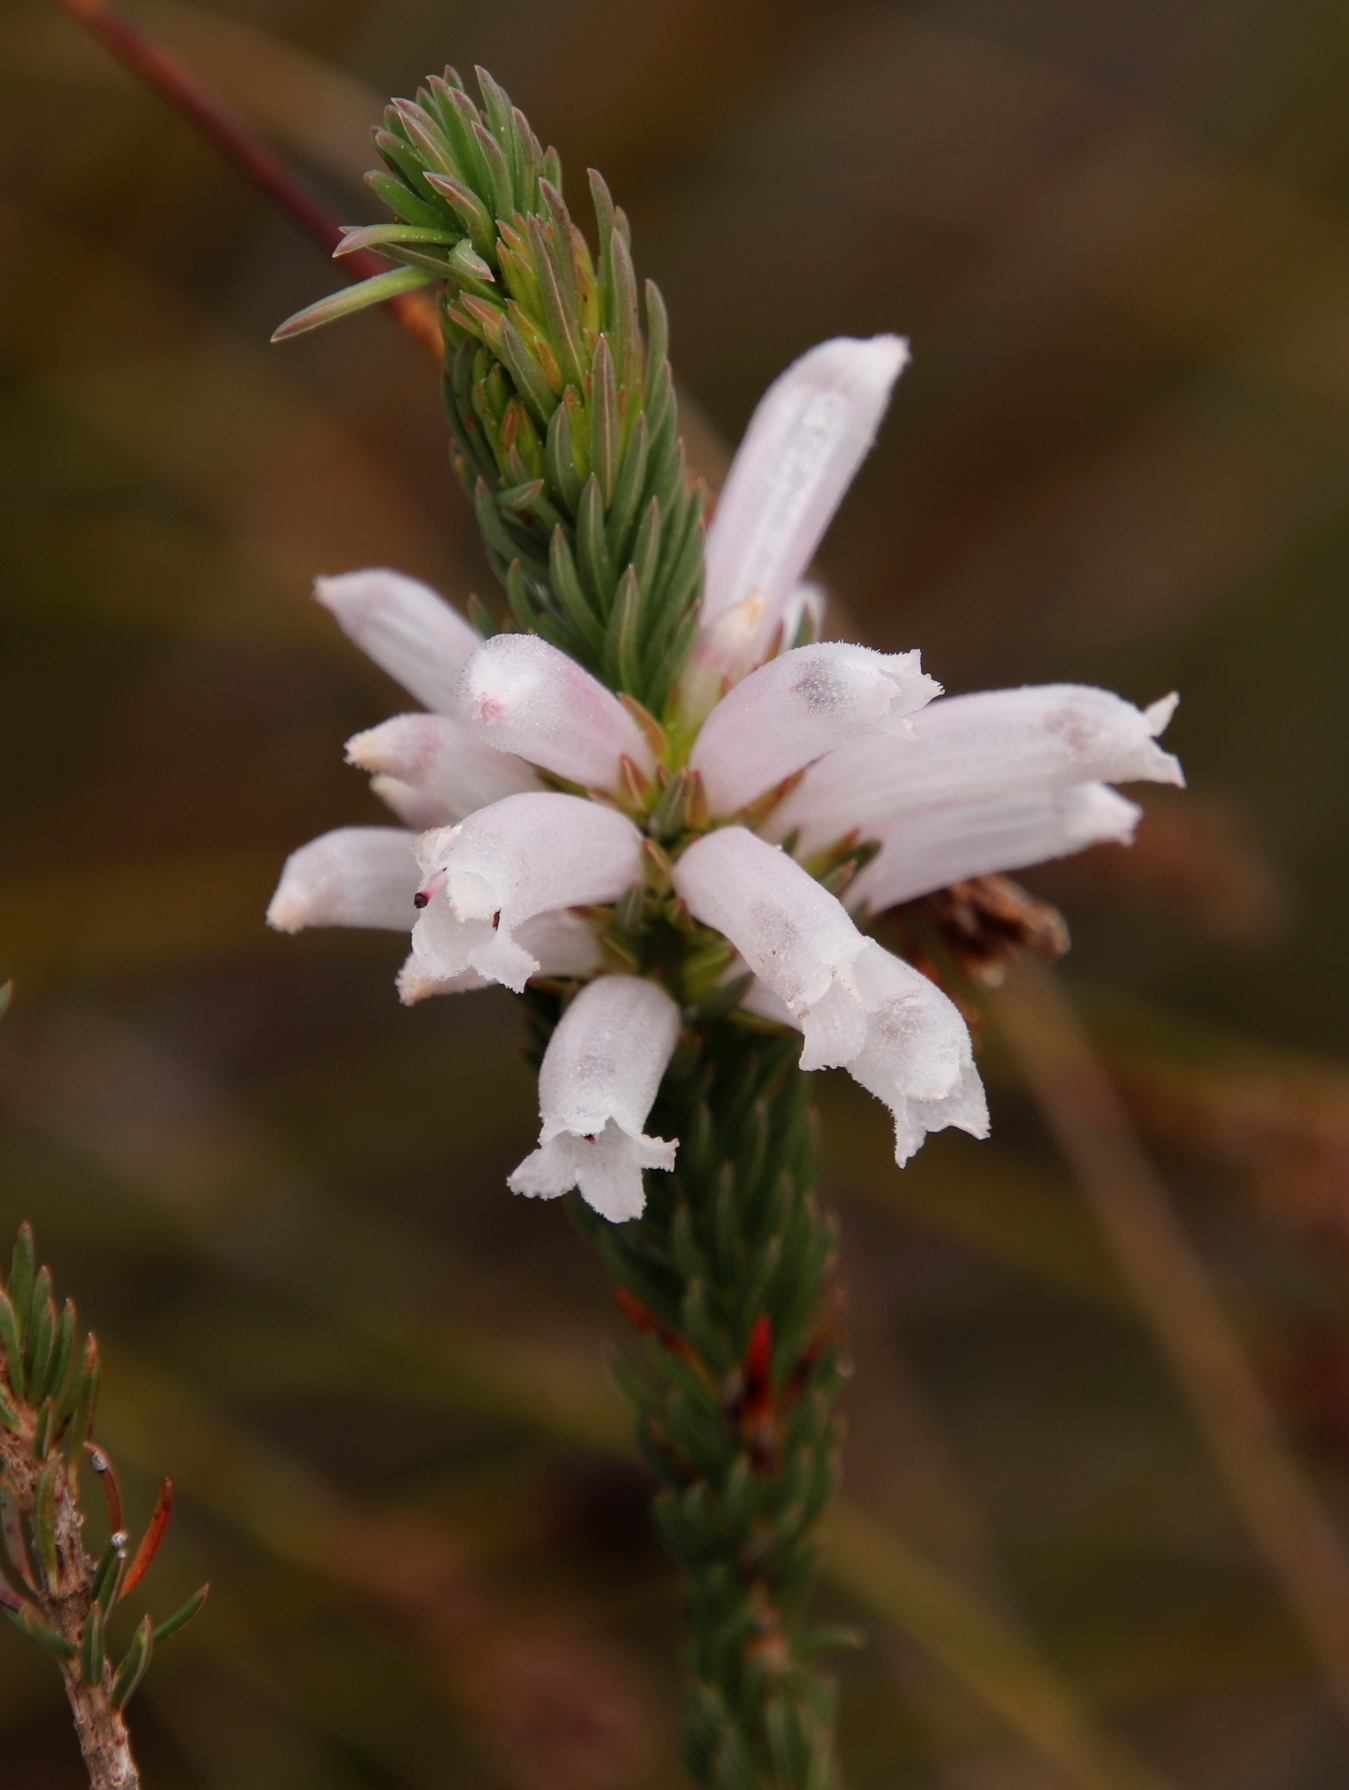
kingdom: Plantae
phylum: Tracheophyta
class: Magnoliopsida
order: Ericales
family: Ericaceae
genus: Erica
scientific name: Erica viscaria
